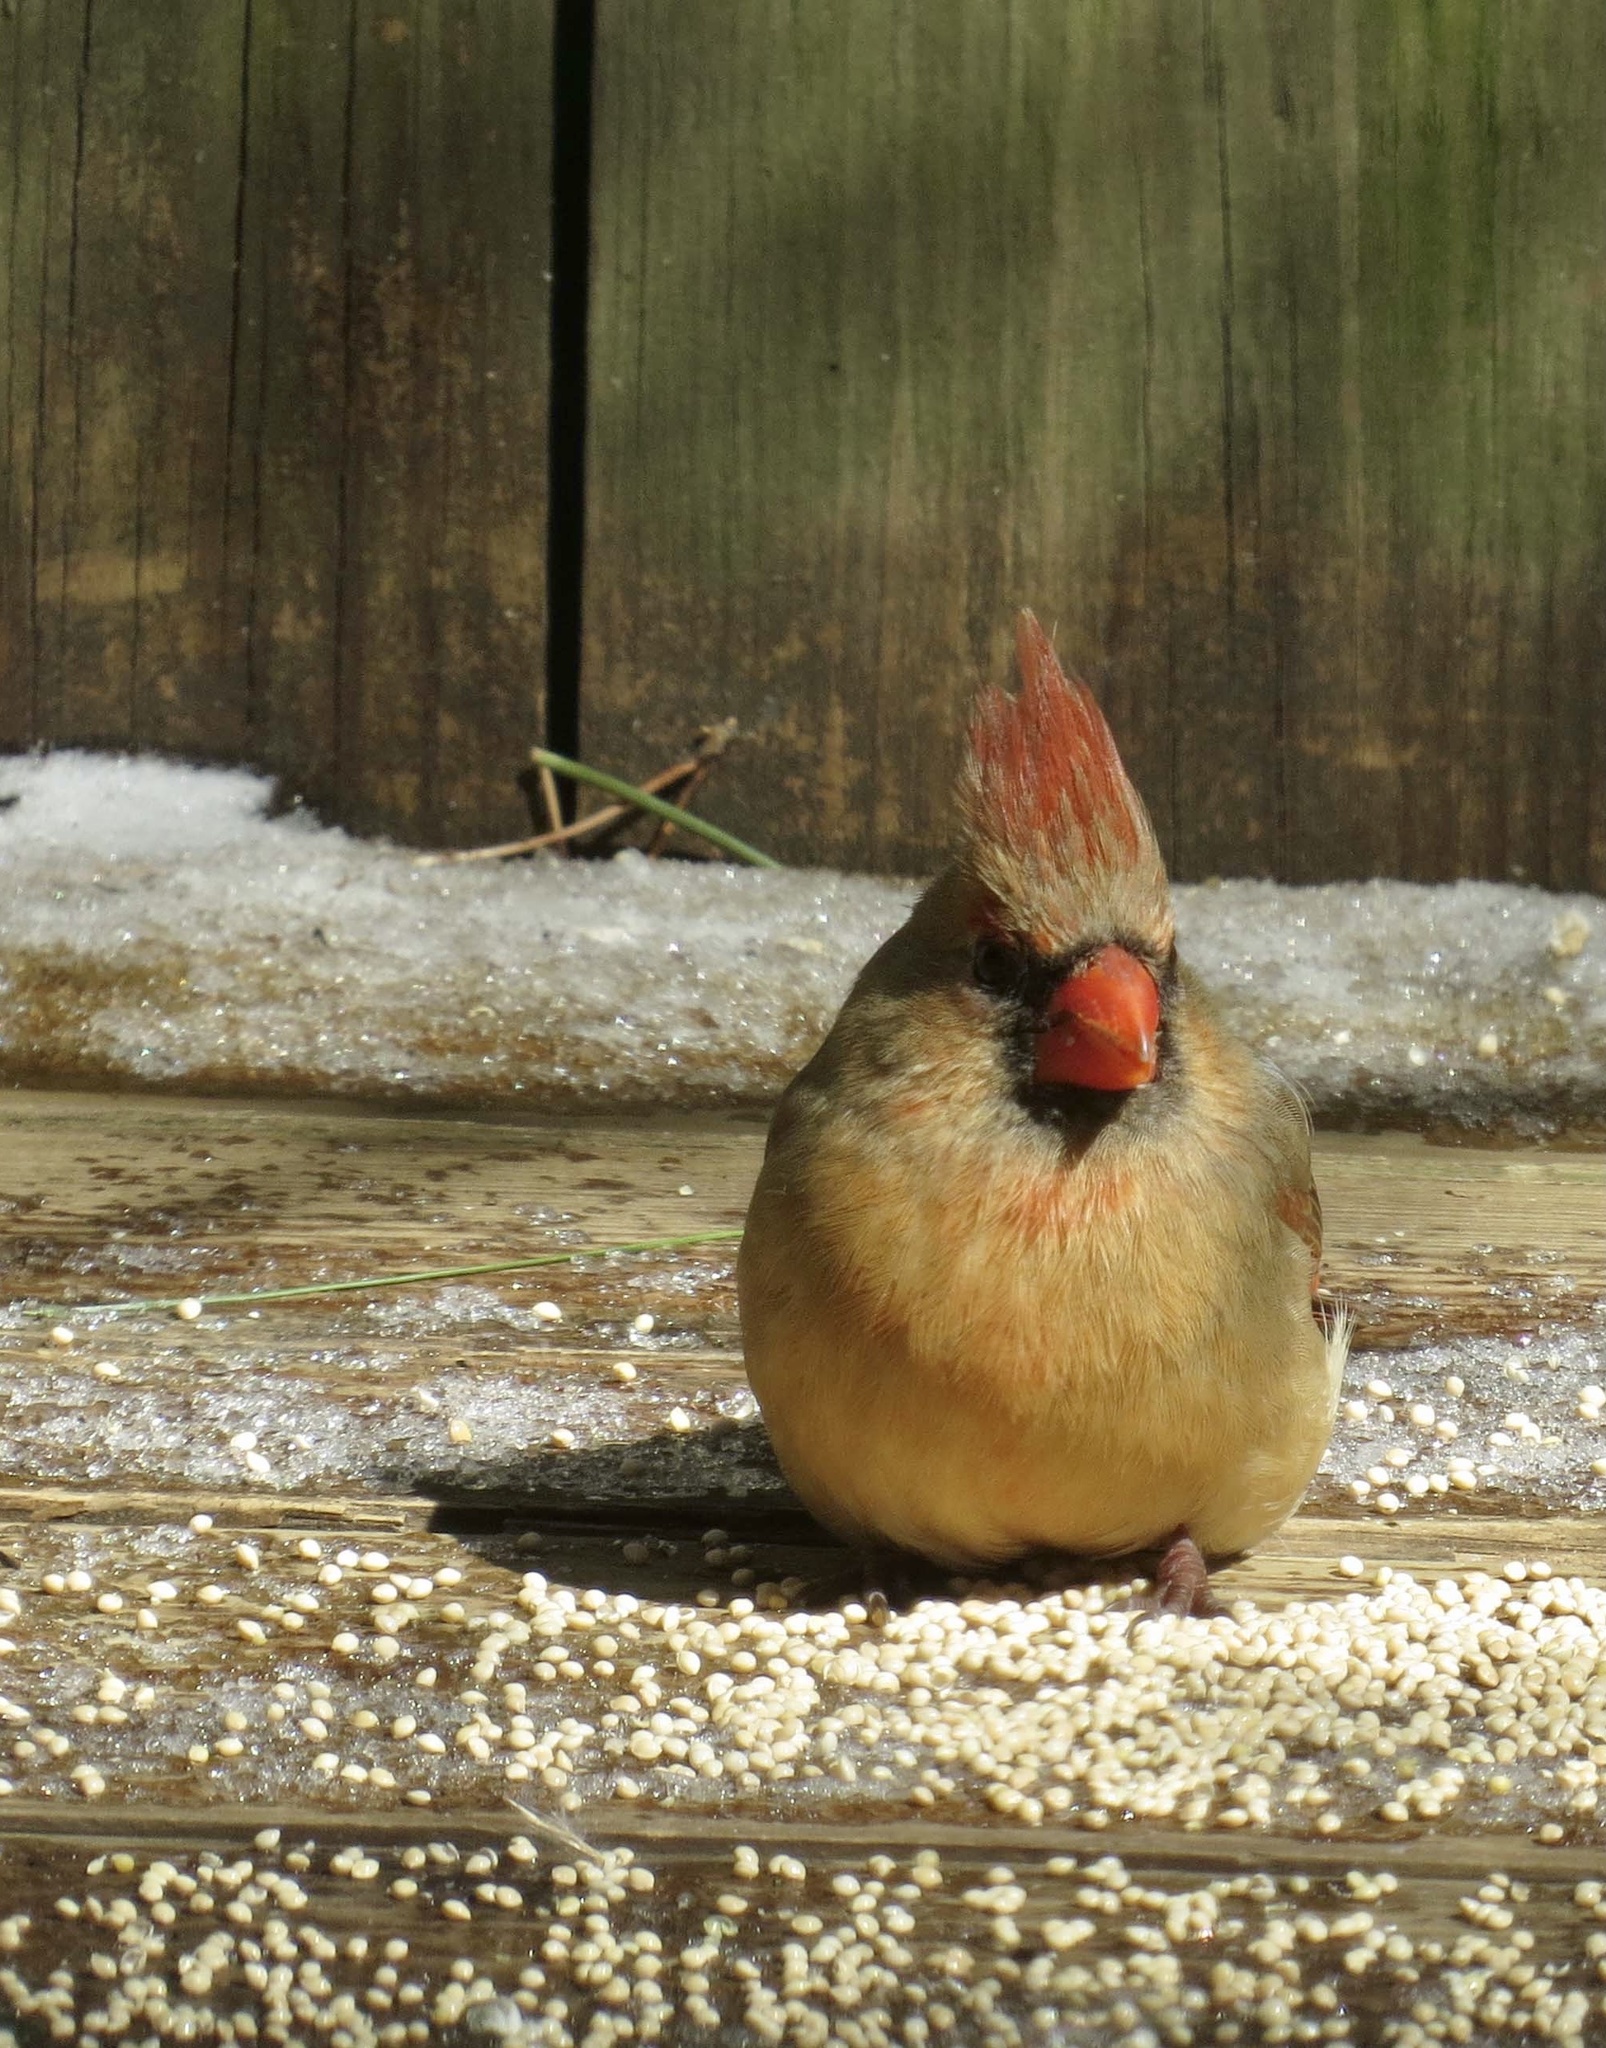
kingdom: Animalia
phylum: Chordata
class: Aves
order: Passeriformes
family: Cardinalidae
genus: Cardinalis
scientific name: Cardinalis cardinalis
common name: Northern cardinal
